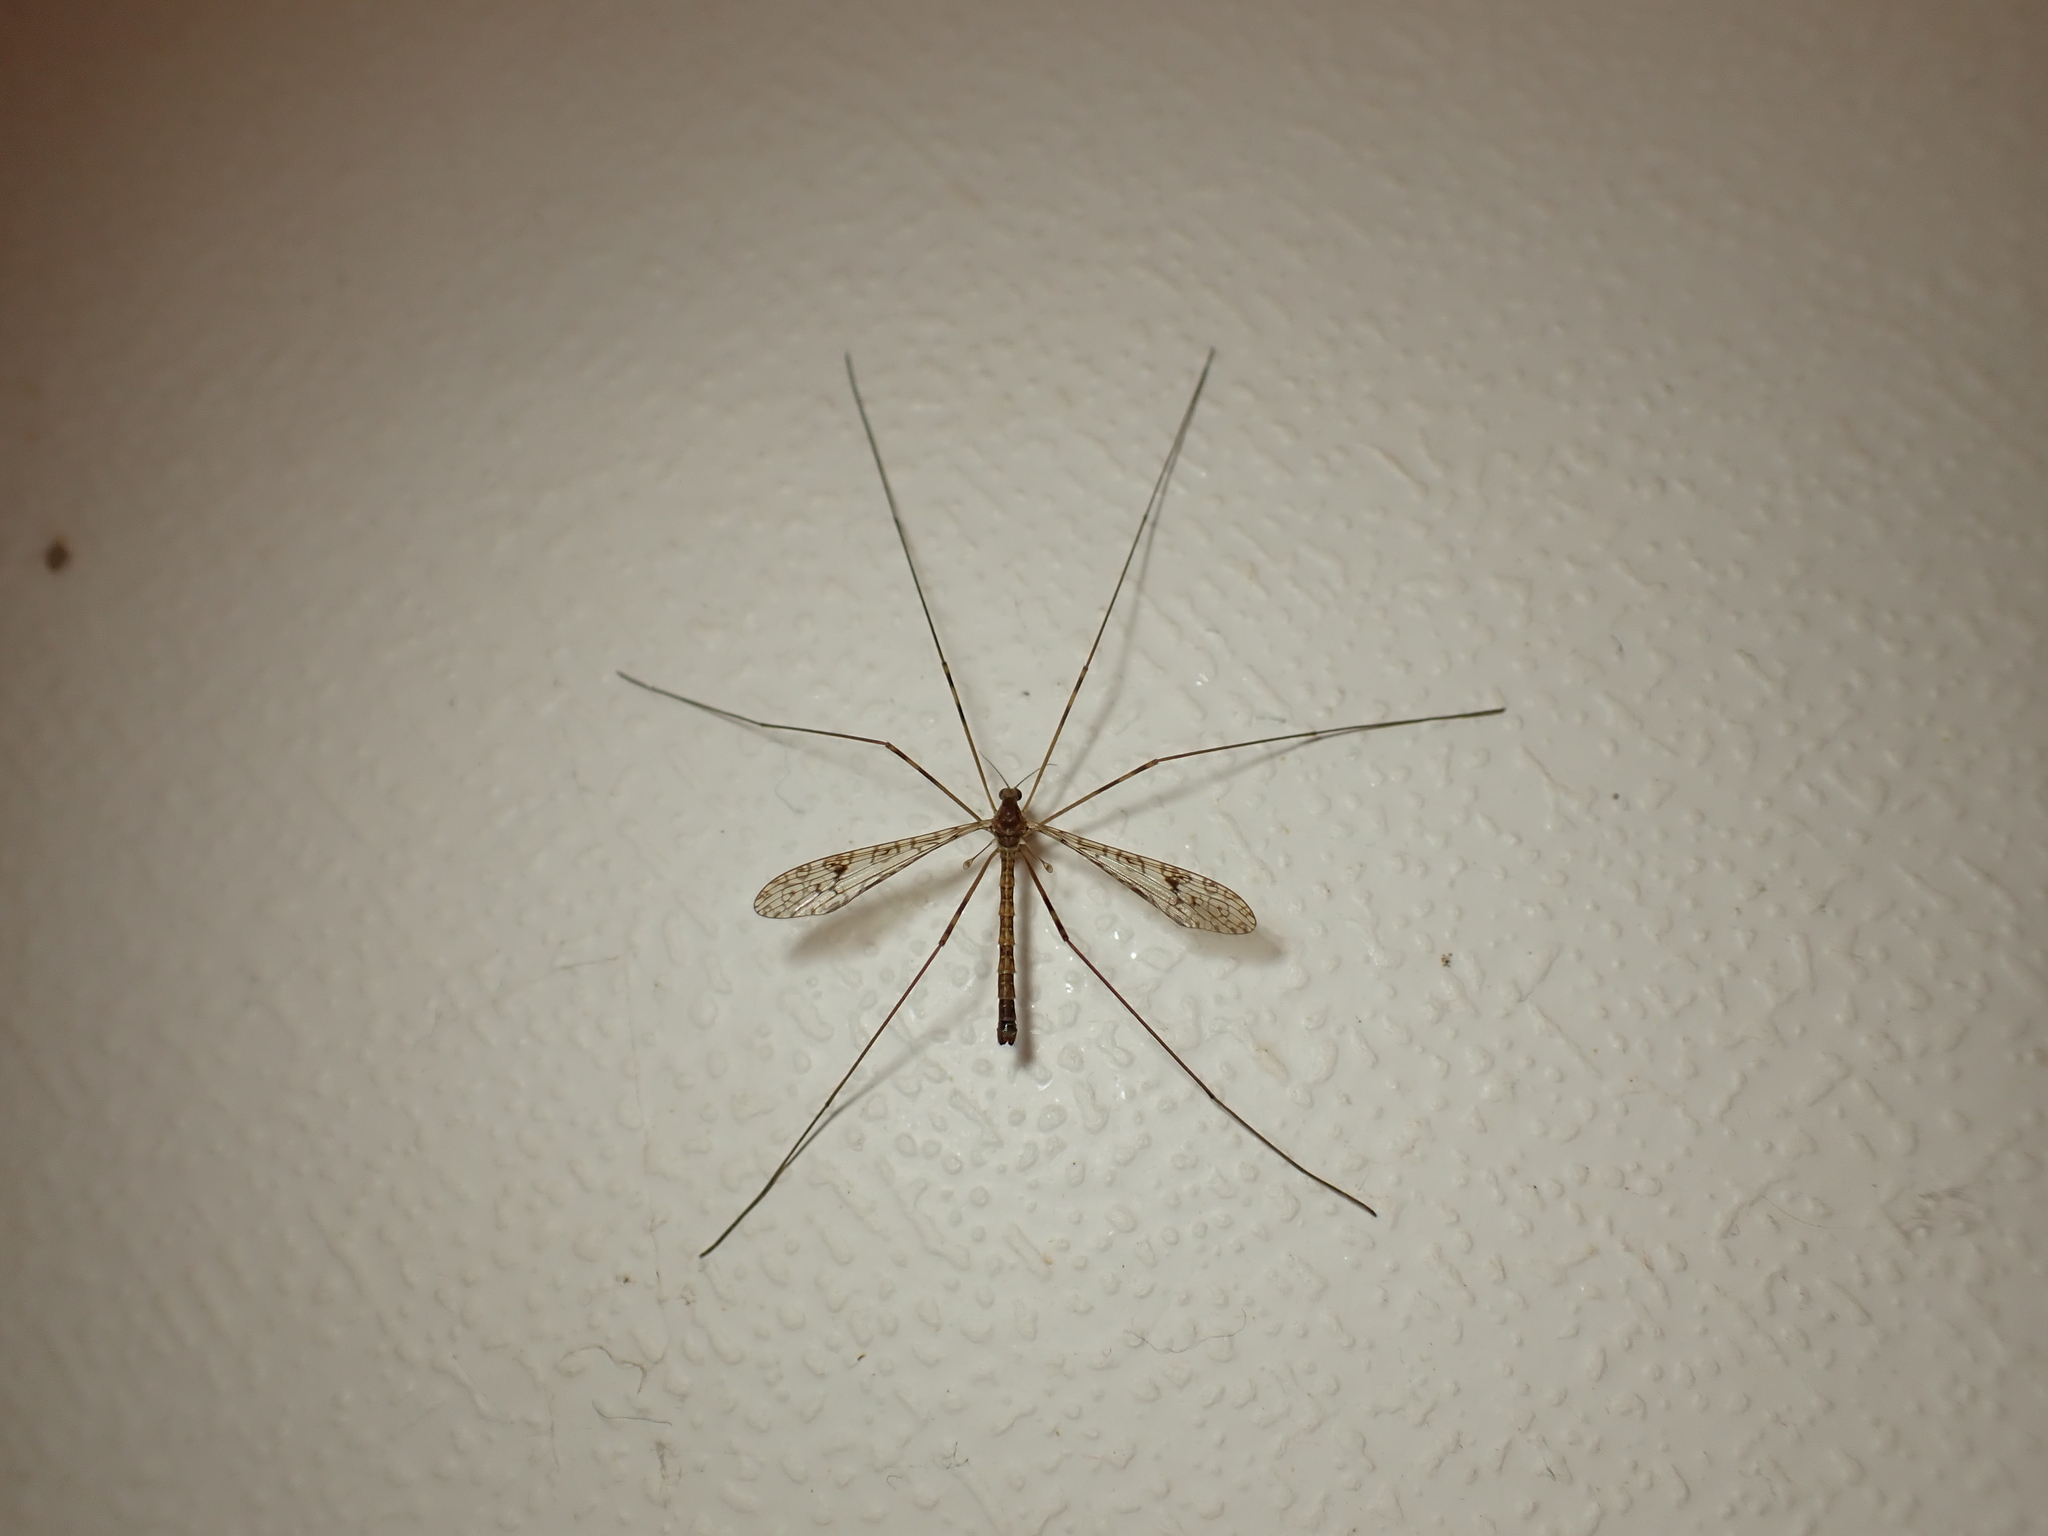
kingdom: Animalia
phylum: Arthropoda
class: Insecta
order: Diptera
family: Limoniidae
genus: Austrolimnophila
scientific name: Austrolimnophila argus
